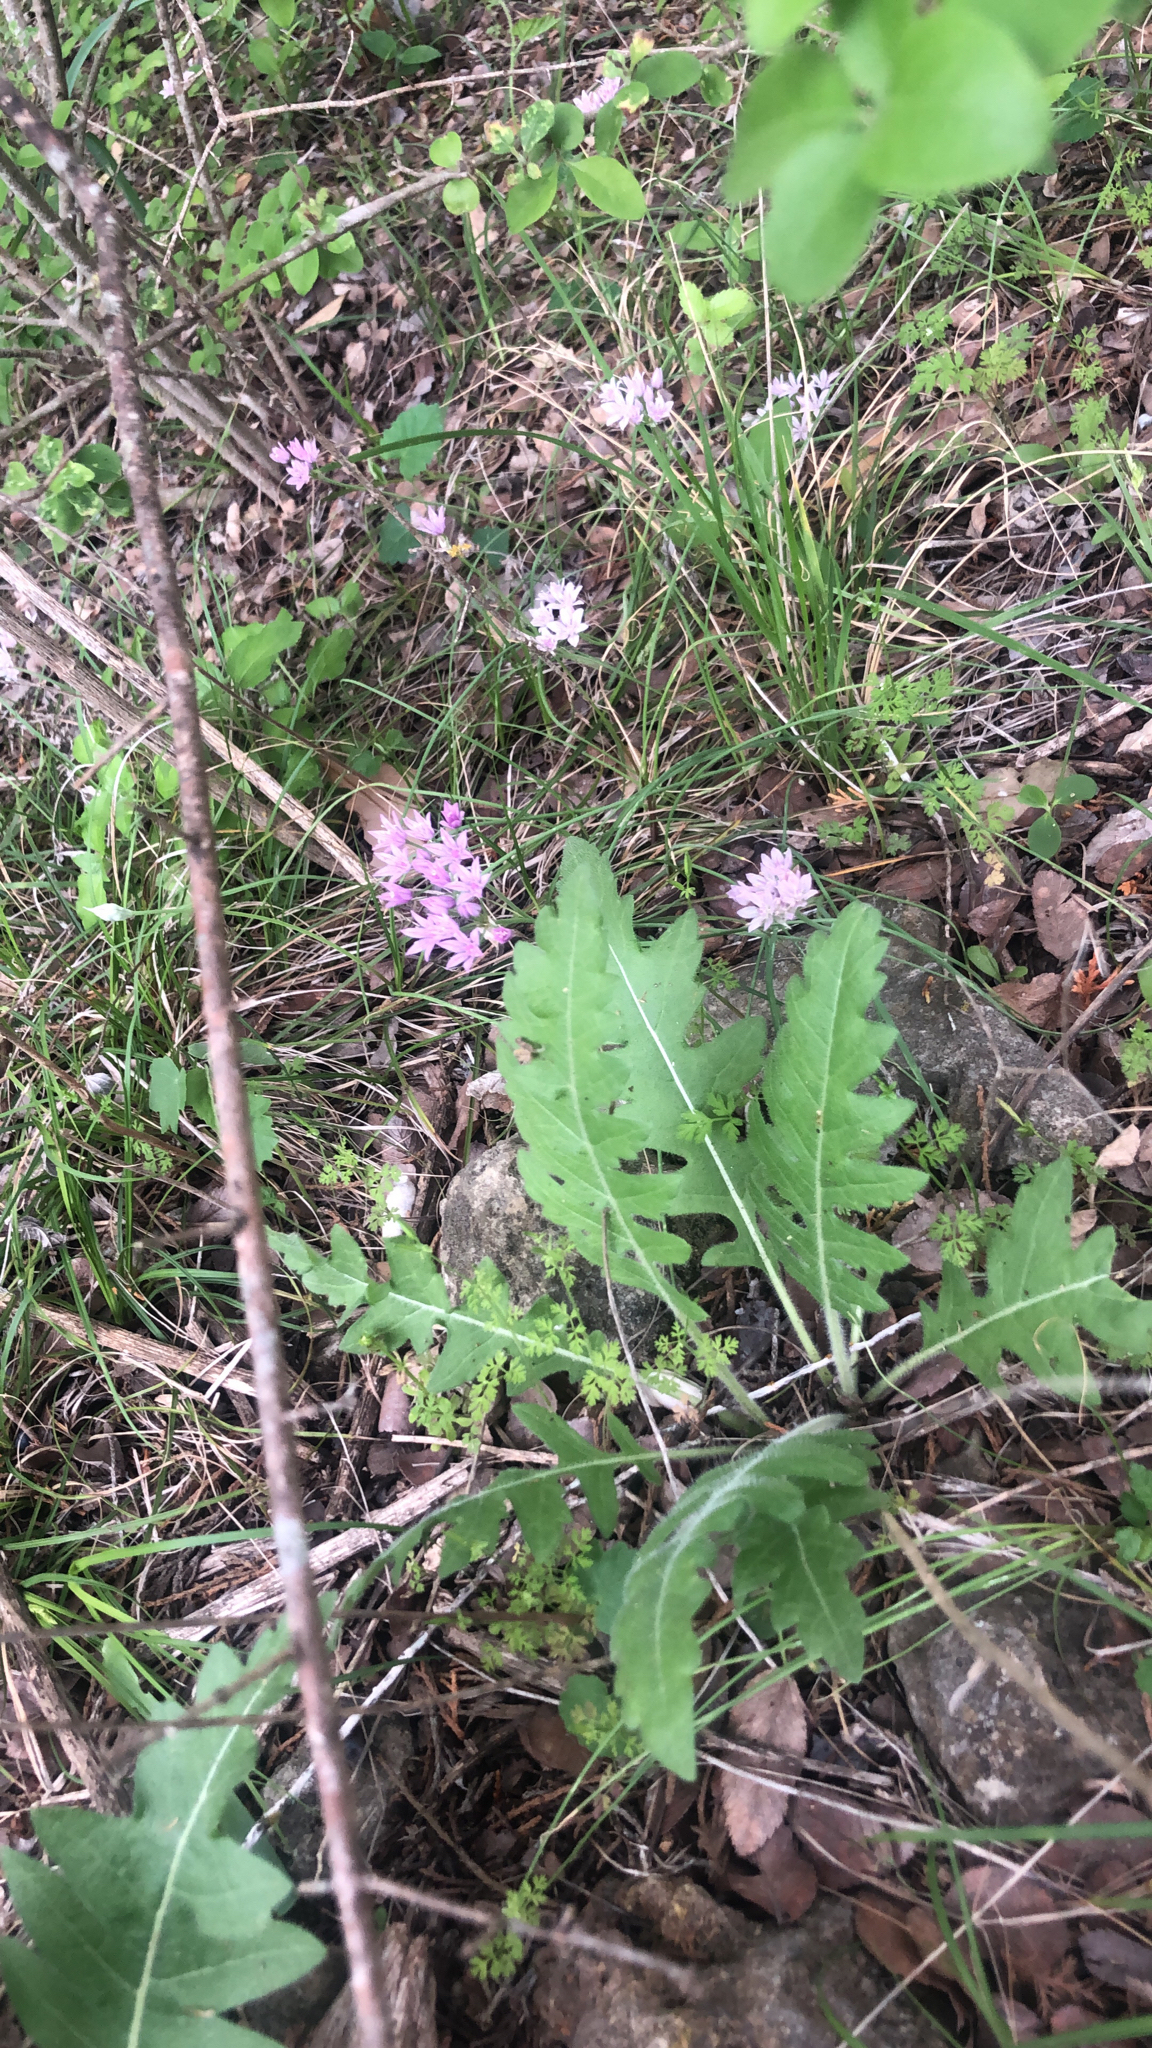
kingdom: Plantae
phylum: Tracheophyta
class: Liliopsida
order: Asparagales
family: Amaryllidaceae
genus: Allium
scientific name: Allium drummondii
